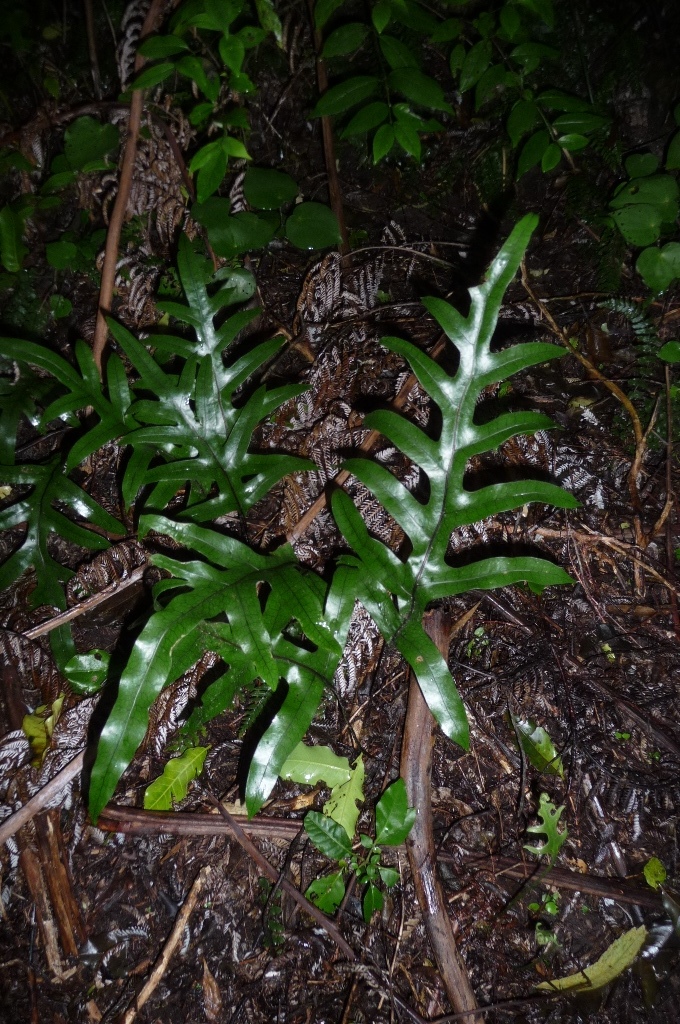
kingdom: Plantae
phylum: Tracheophyta
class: Polypodiopsida
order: Polypodiales
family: Polypodiaceae
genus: Lecanopteris
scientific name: Lecanopteris pustulata
